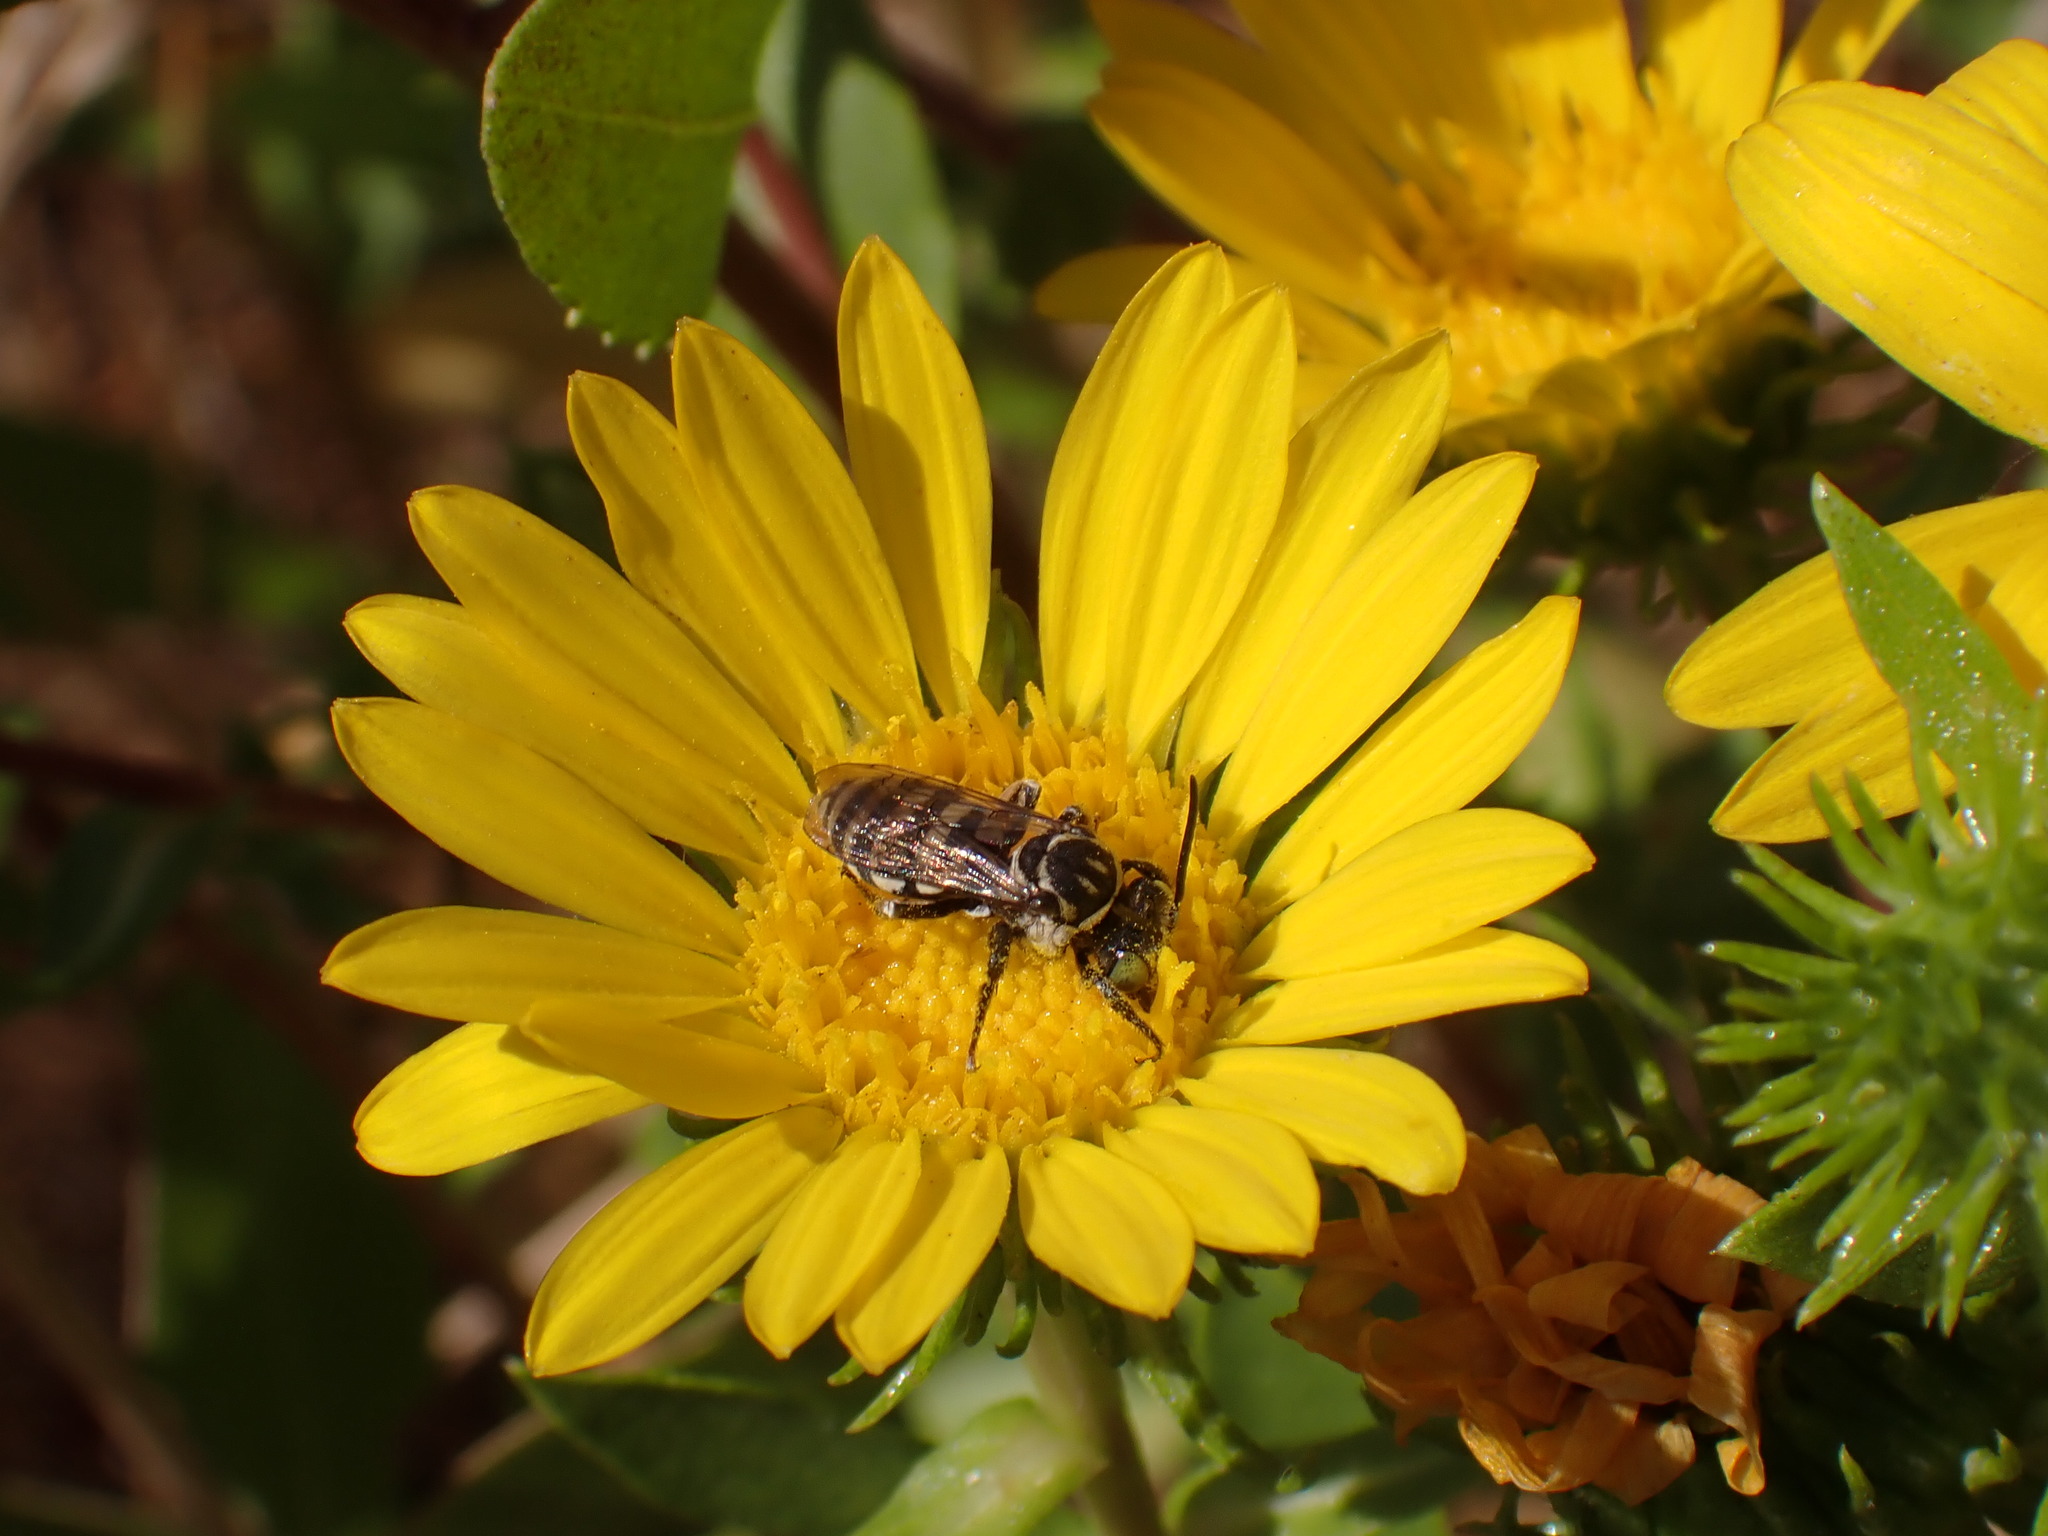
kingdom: Animalia
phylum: Arthropoda
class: Insecta
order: Hymenoptera
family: Apidae
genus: Triepeolus
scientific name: Triepeolus paenepectoralis
